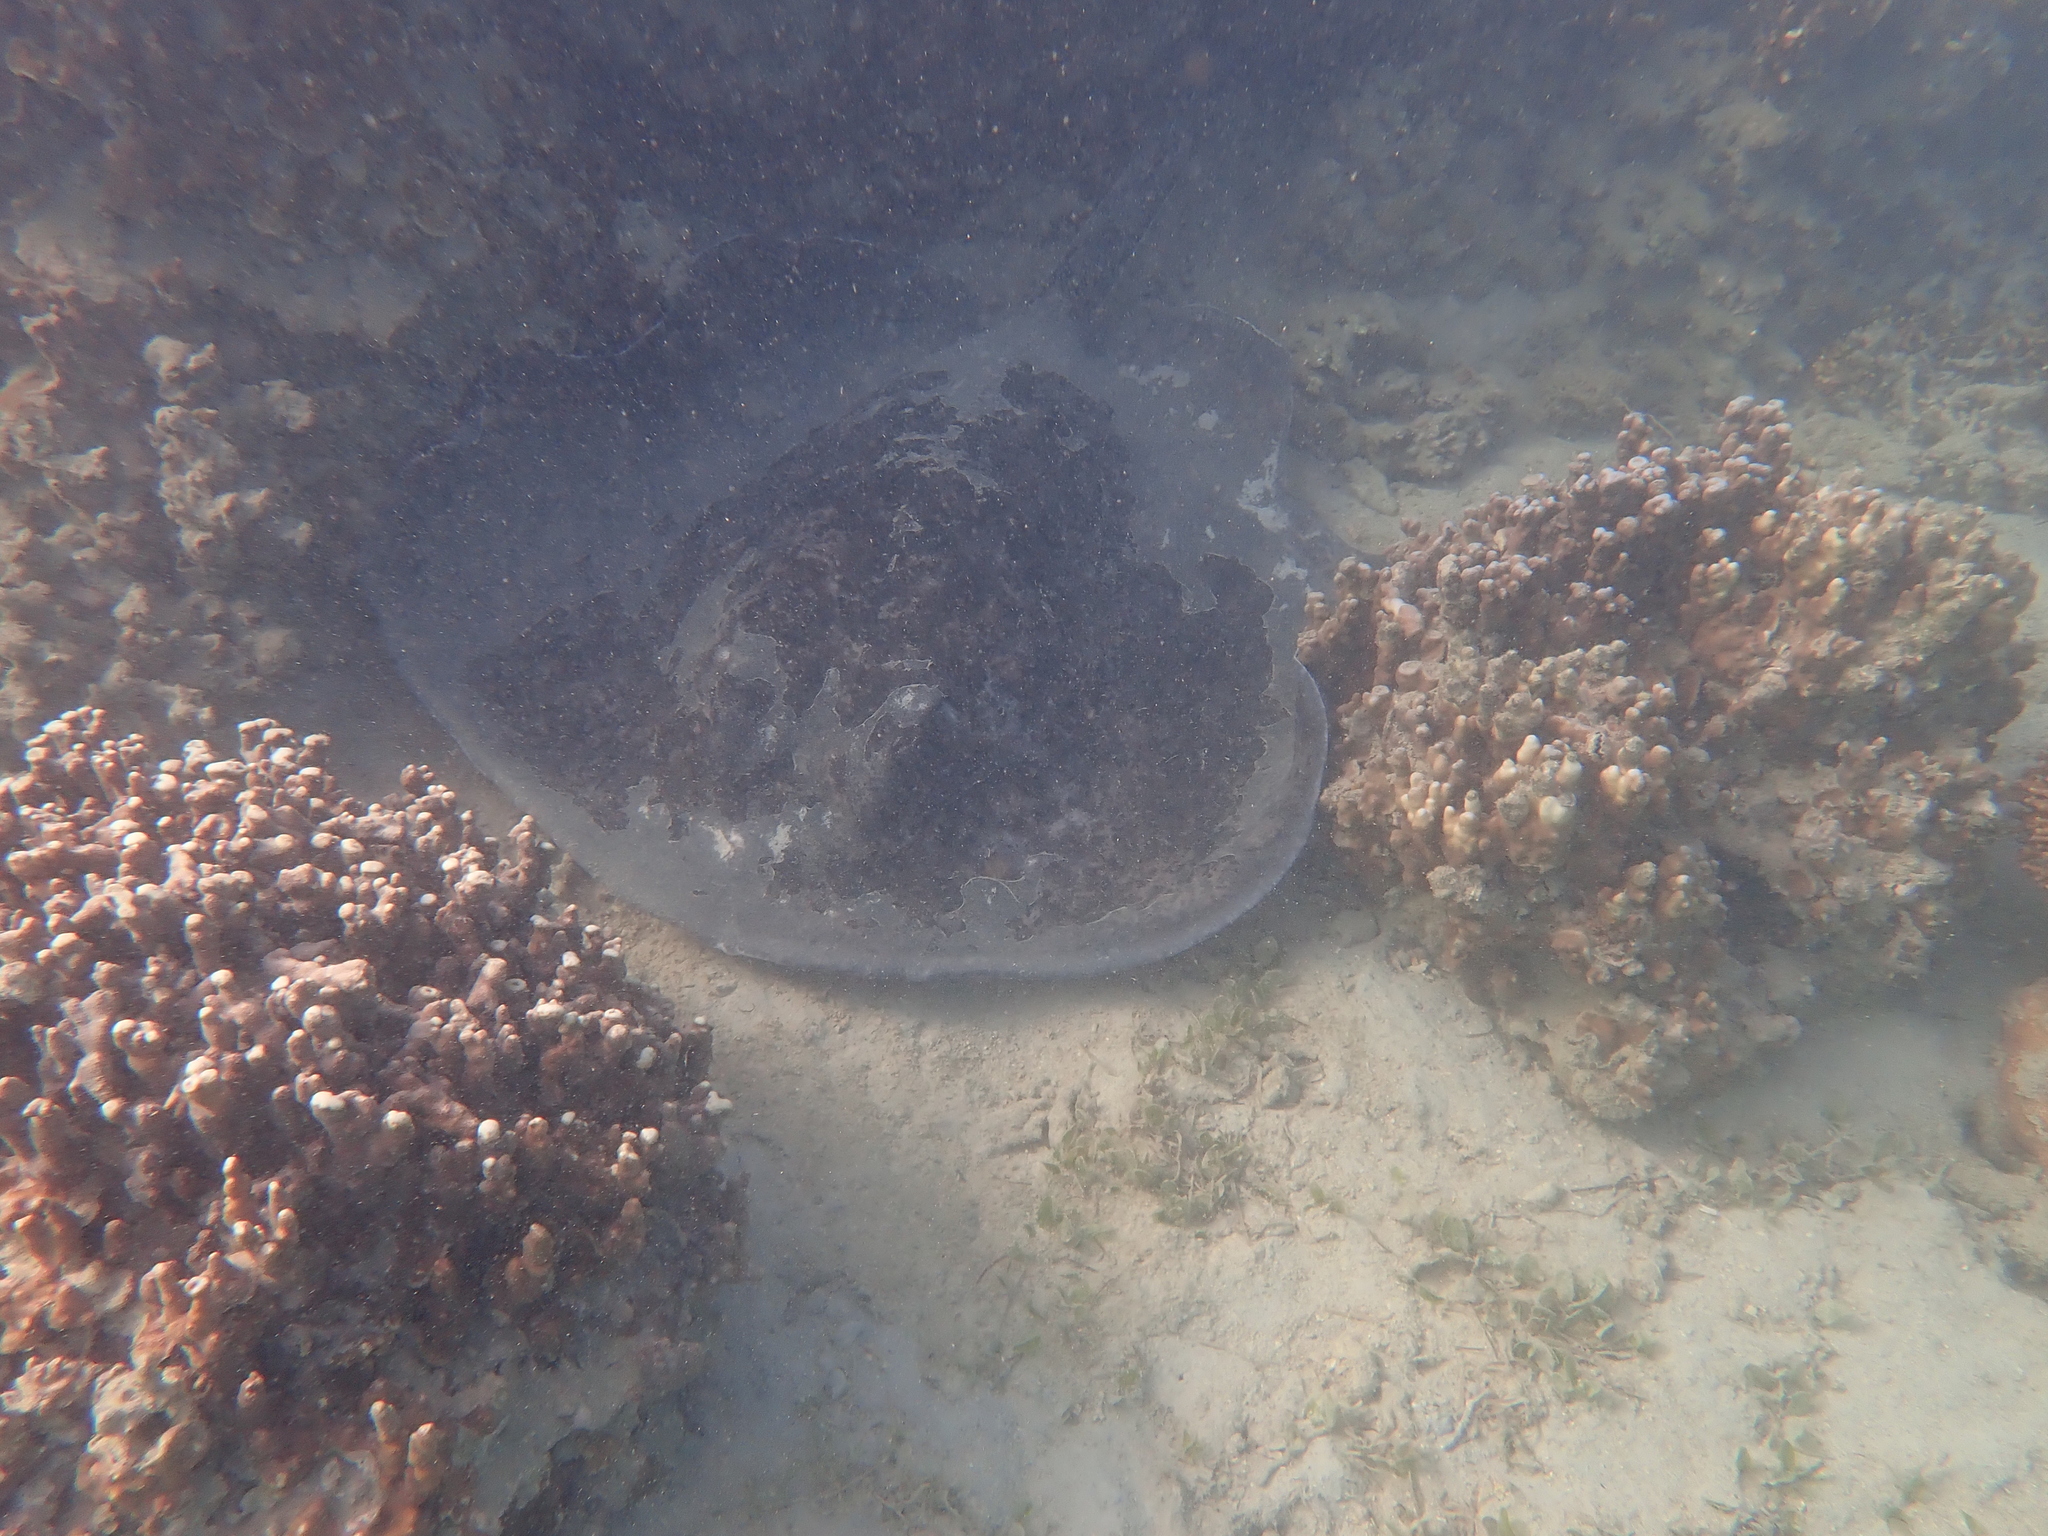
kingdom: Animalia
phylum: Chordata
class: Elasmobranchii
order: Myliobatiformes
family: Dasyatidae
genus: Taeniurops
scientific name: Taeniurops meyeni
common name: Black-blotched stingray
